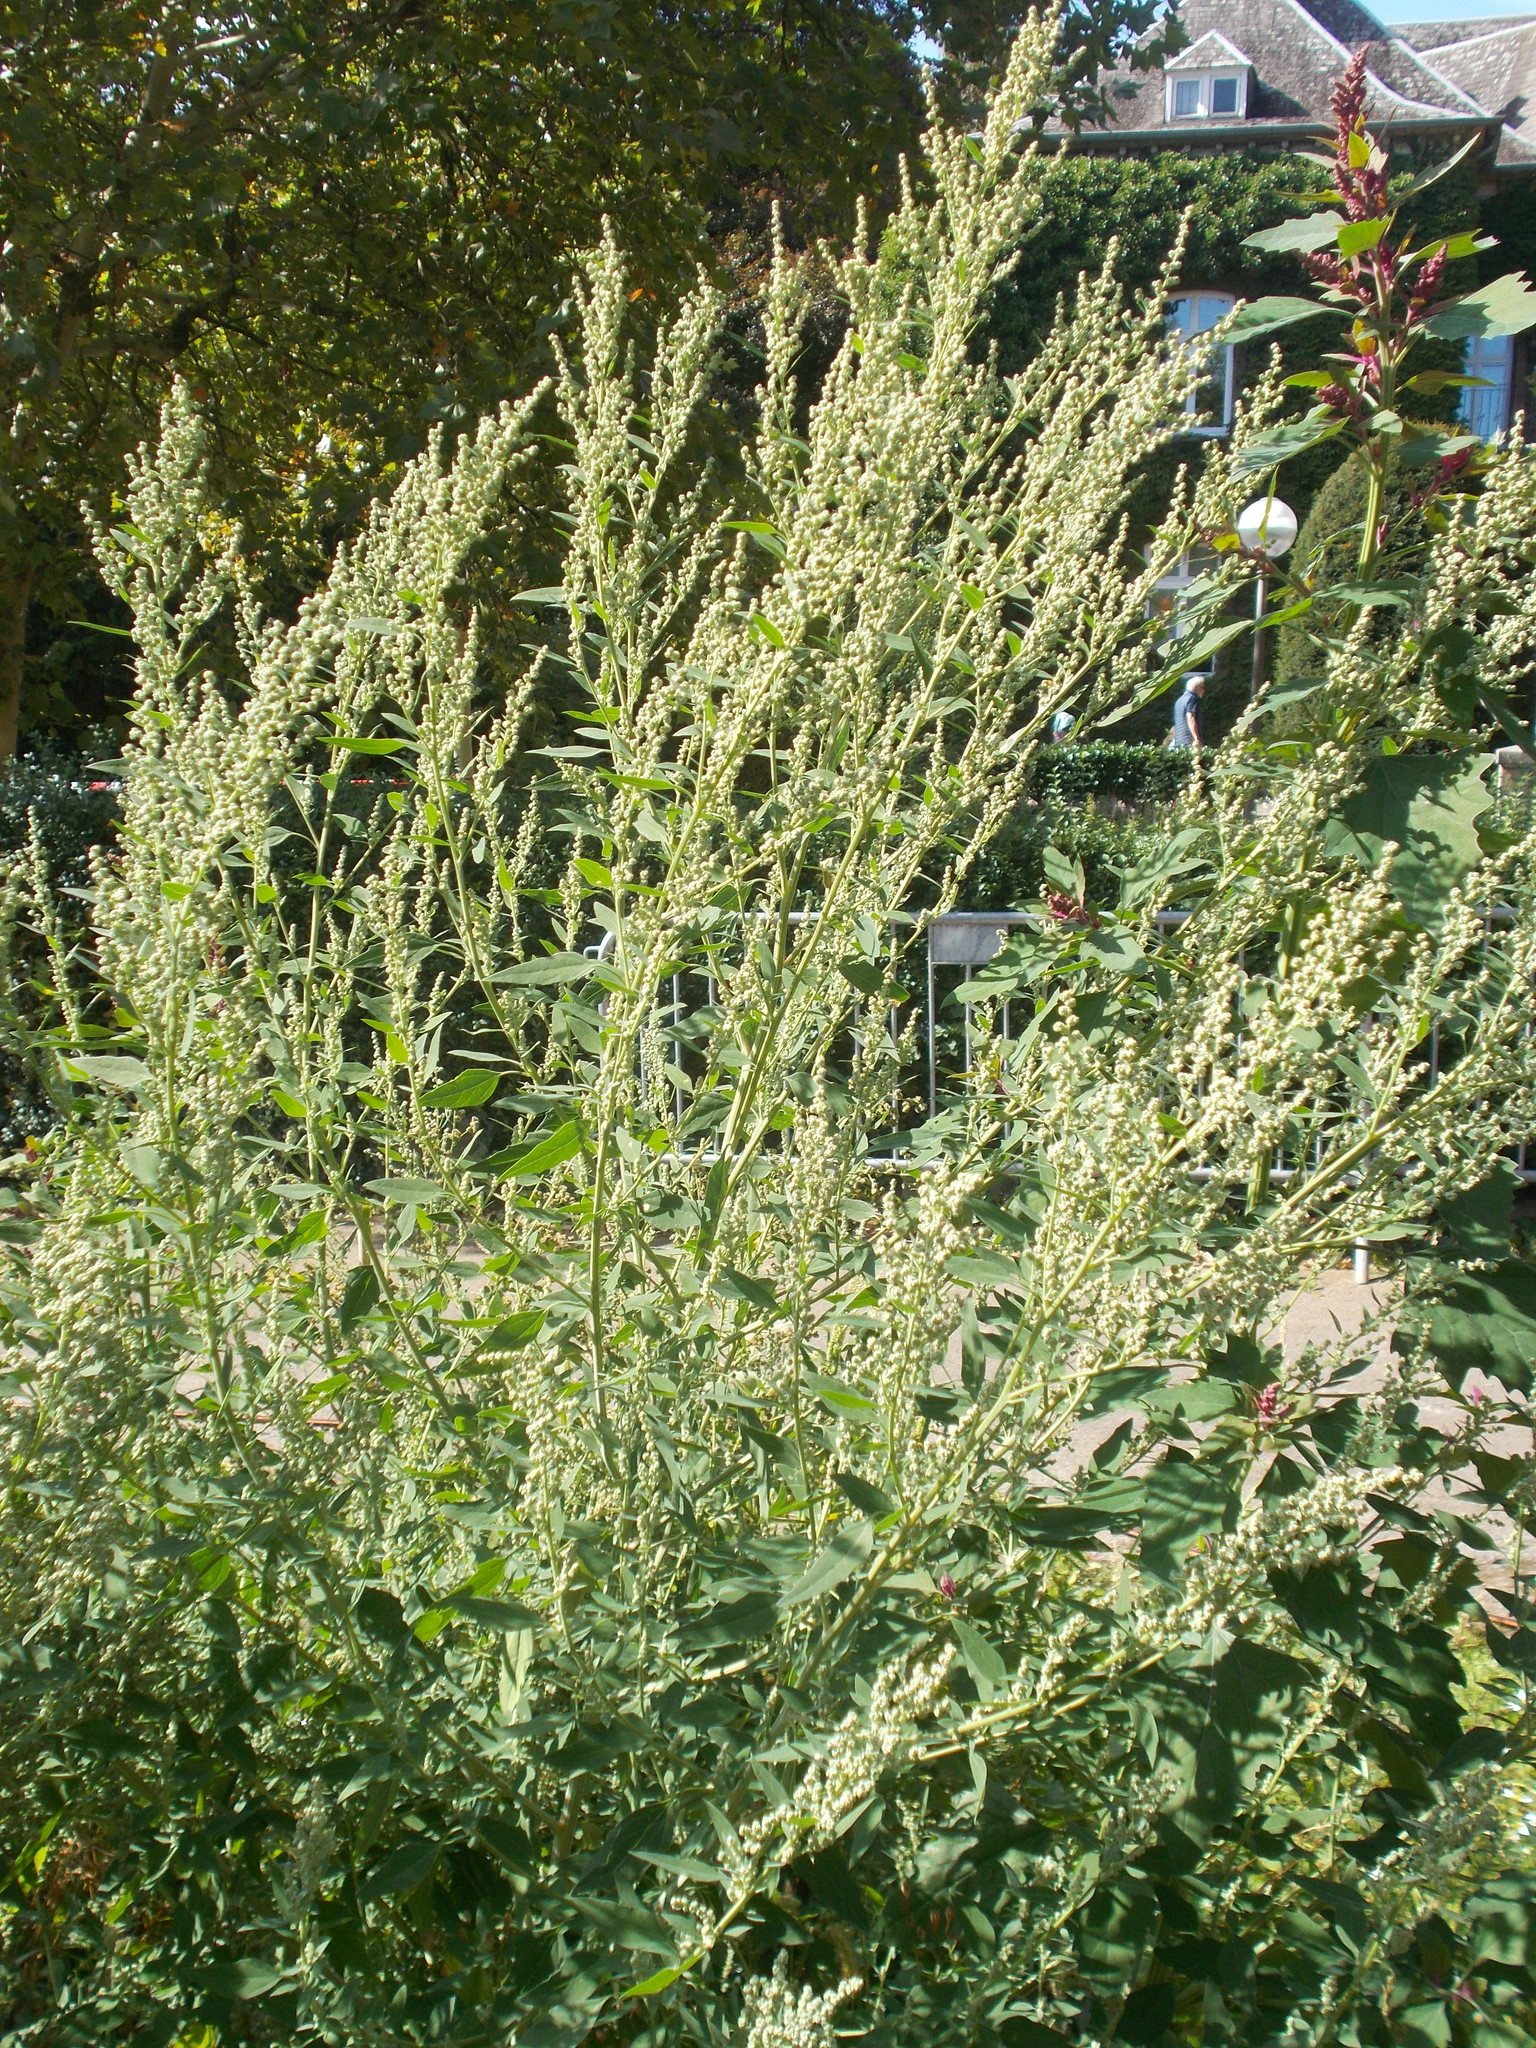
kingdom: Plantae
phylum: Tracheophyta
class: Magnoliopsida
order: Caryophyllales
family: Amaranthaceae
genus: Chenopodium
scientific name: Chenopodium album
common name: Fat-hen
